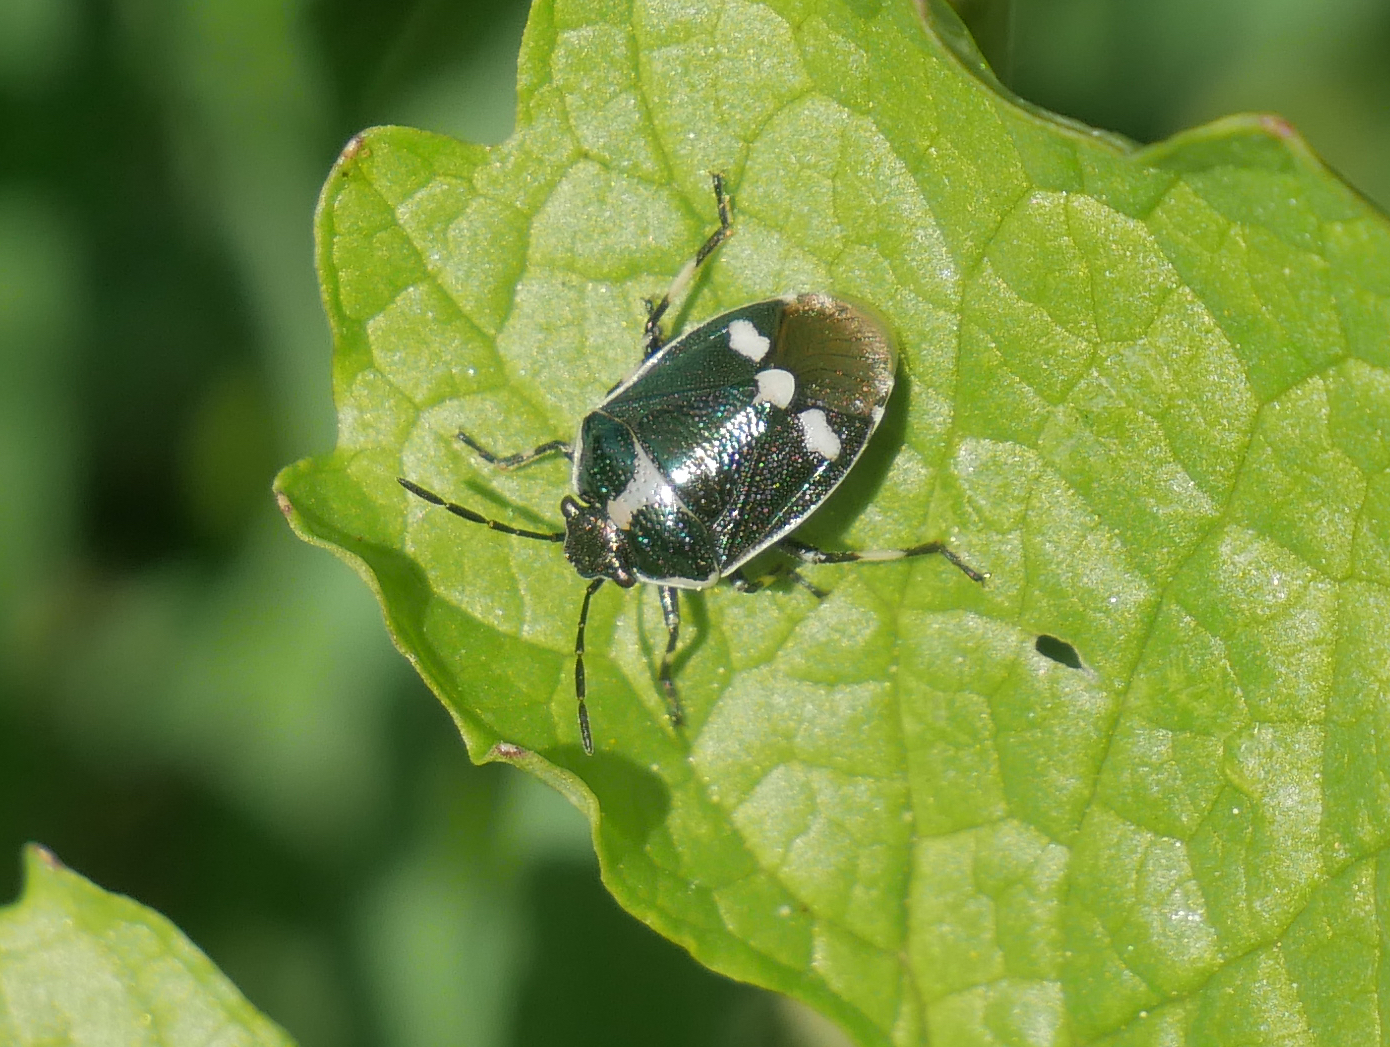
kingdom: Animalia
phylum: Arthropoda
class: Insecta
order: Hemiptera
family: Pentatomidae
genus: Eurydema
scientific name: Eurydema oleracea
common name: Cabbage bug
